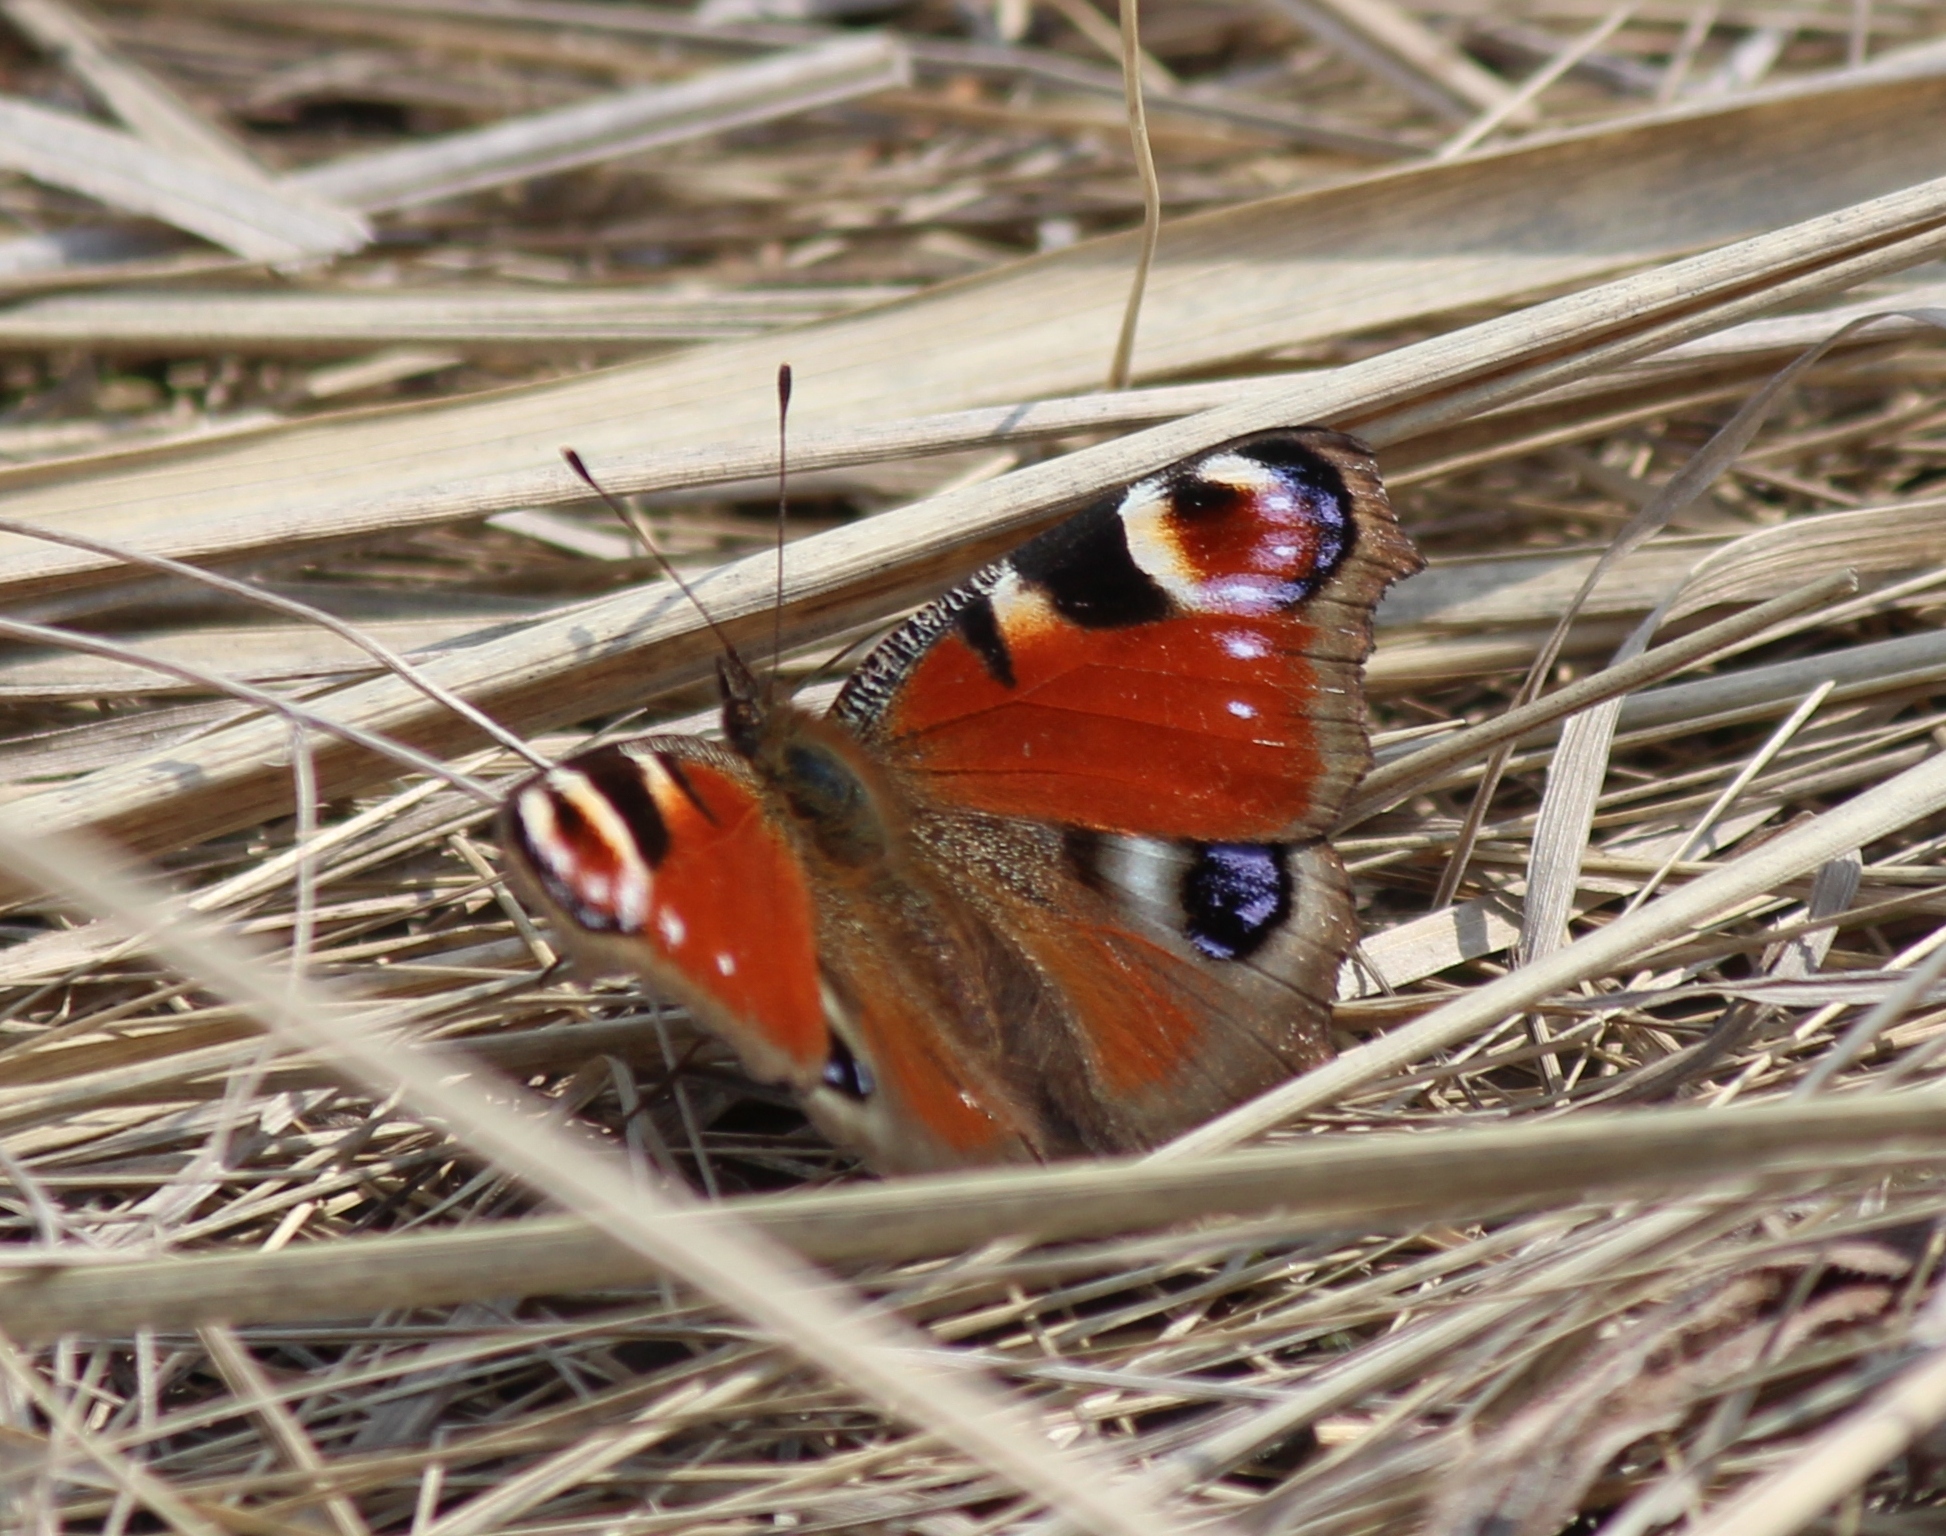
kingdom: Animalia
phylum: Arthropoda
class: Insecta
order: Lepidoptera
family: Nymphalidae
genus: Aglais
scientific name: Aglais io
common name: Peacock
